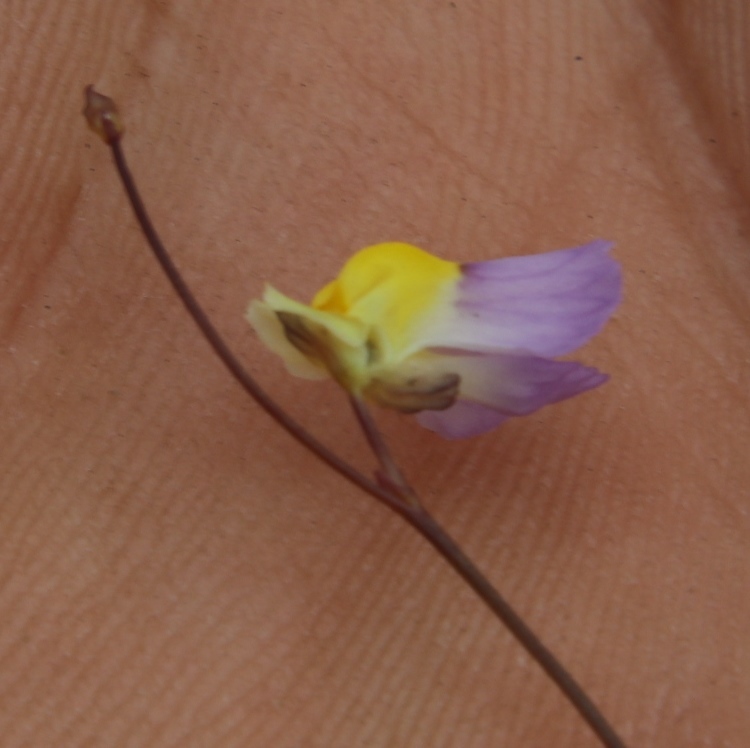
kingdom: Plantae
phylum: Tracheophyta
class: Magnoliopsida
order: Lamiales
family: Lentibulariaceae
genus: Utricularia
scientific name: Utricularia bisquamata
